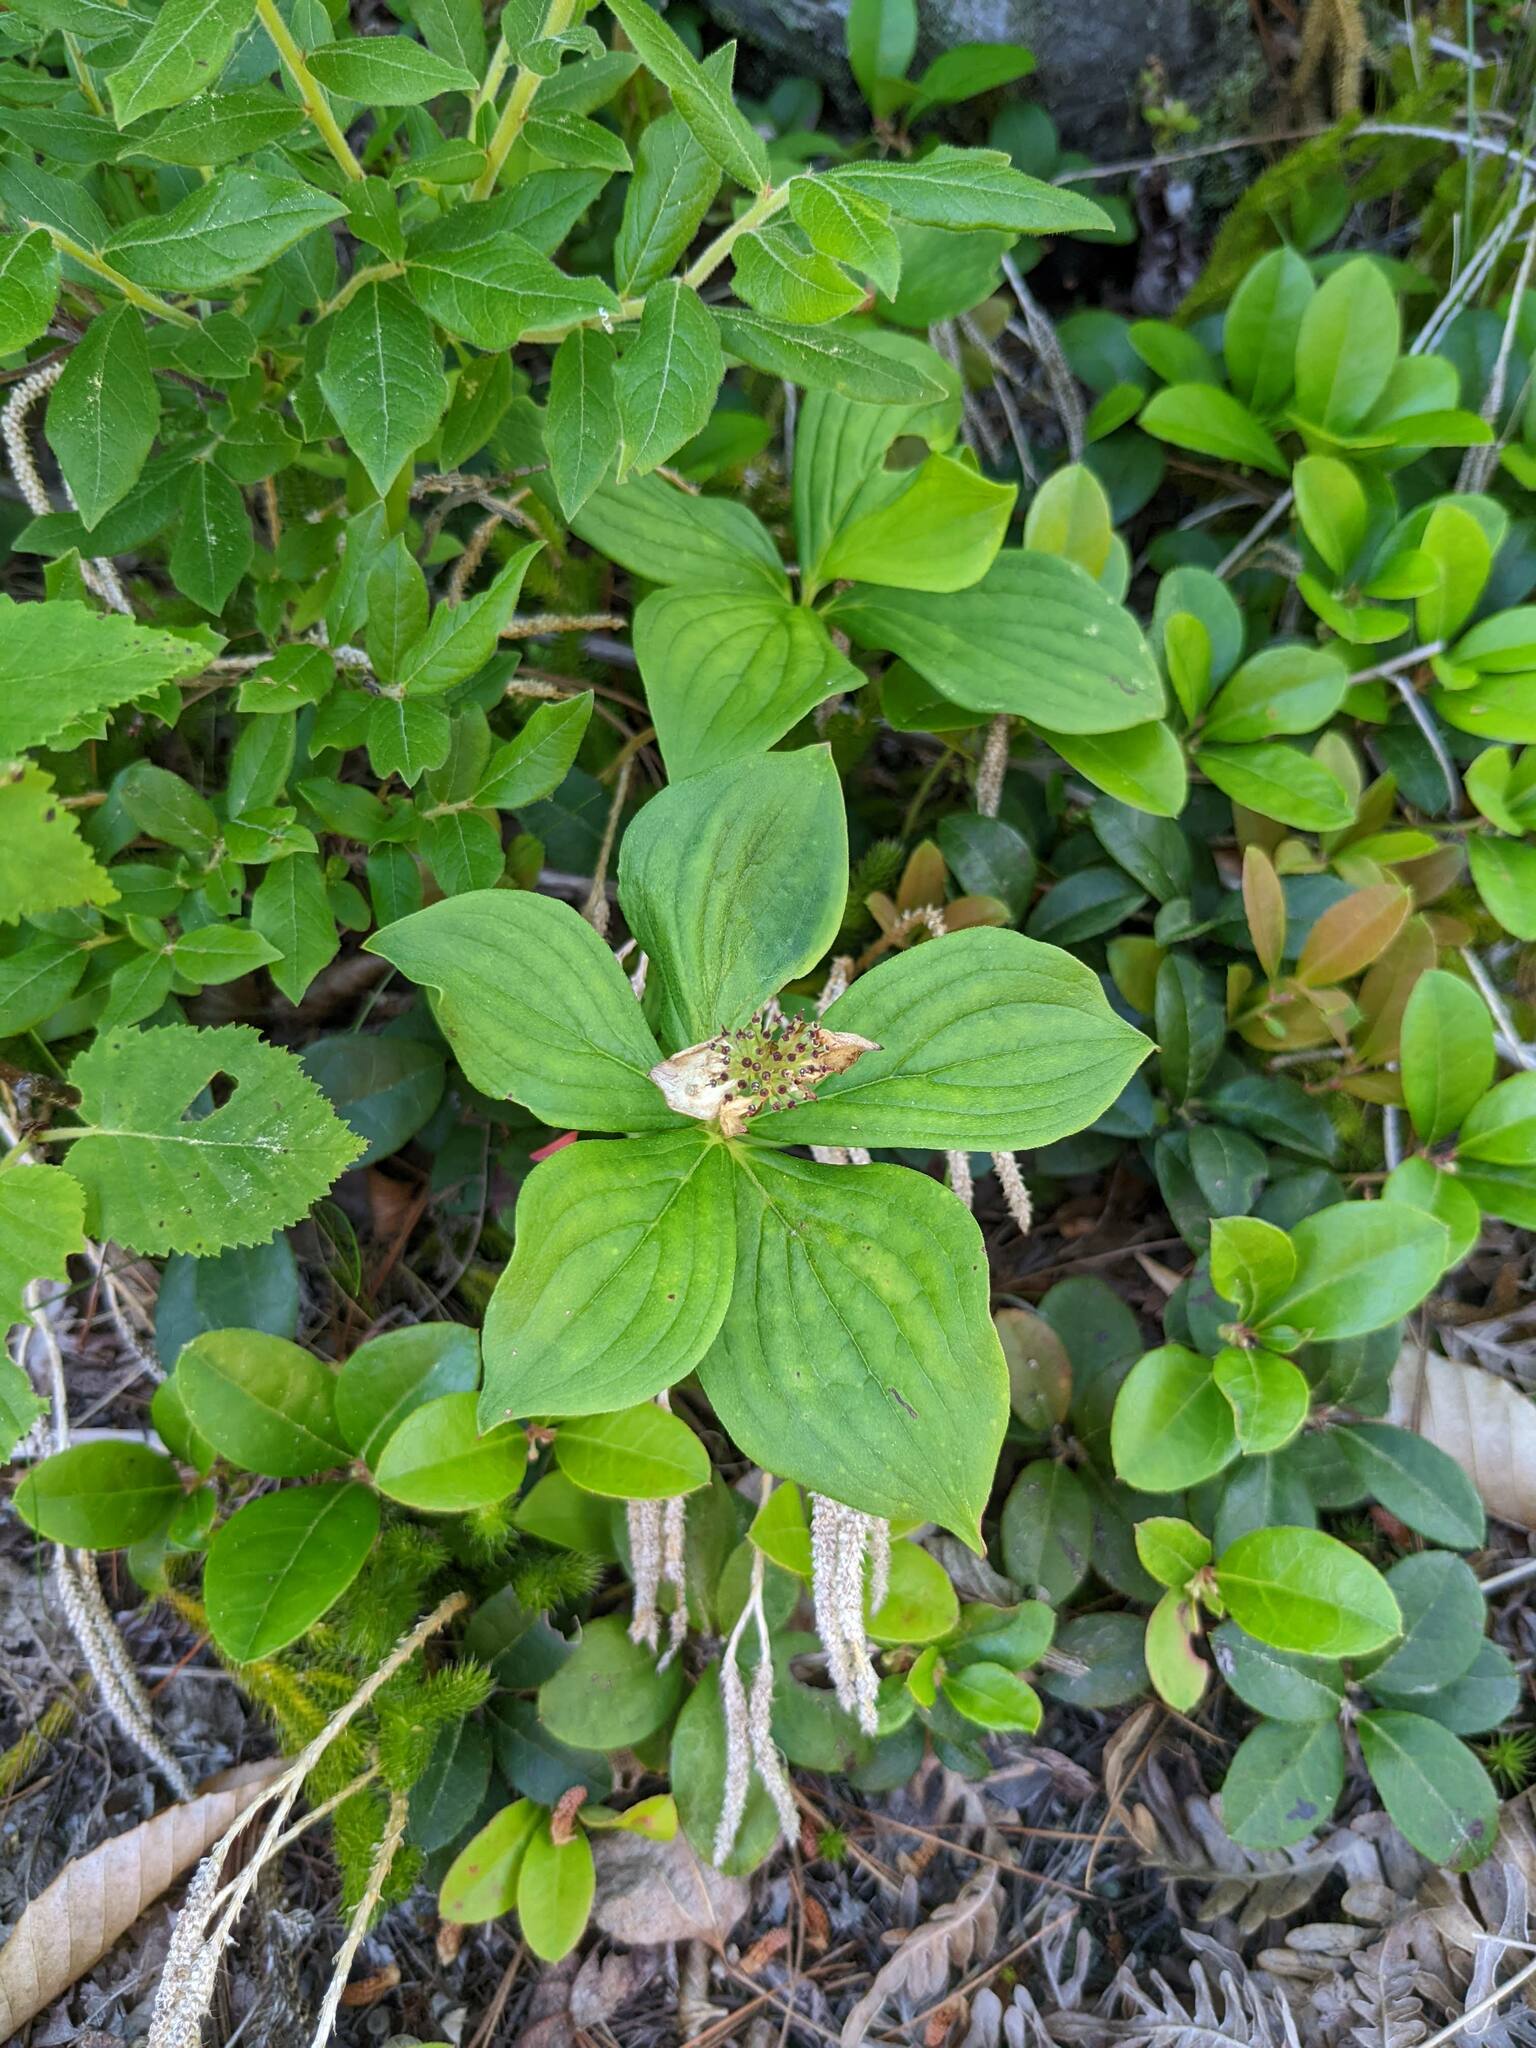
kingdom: Plantae
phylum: Tracheophyta
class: Magnoliopsida
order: Cornales
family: Cornaceae
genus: Cornus
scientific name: Cornus canadensis
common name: Creeping dogwood
